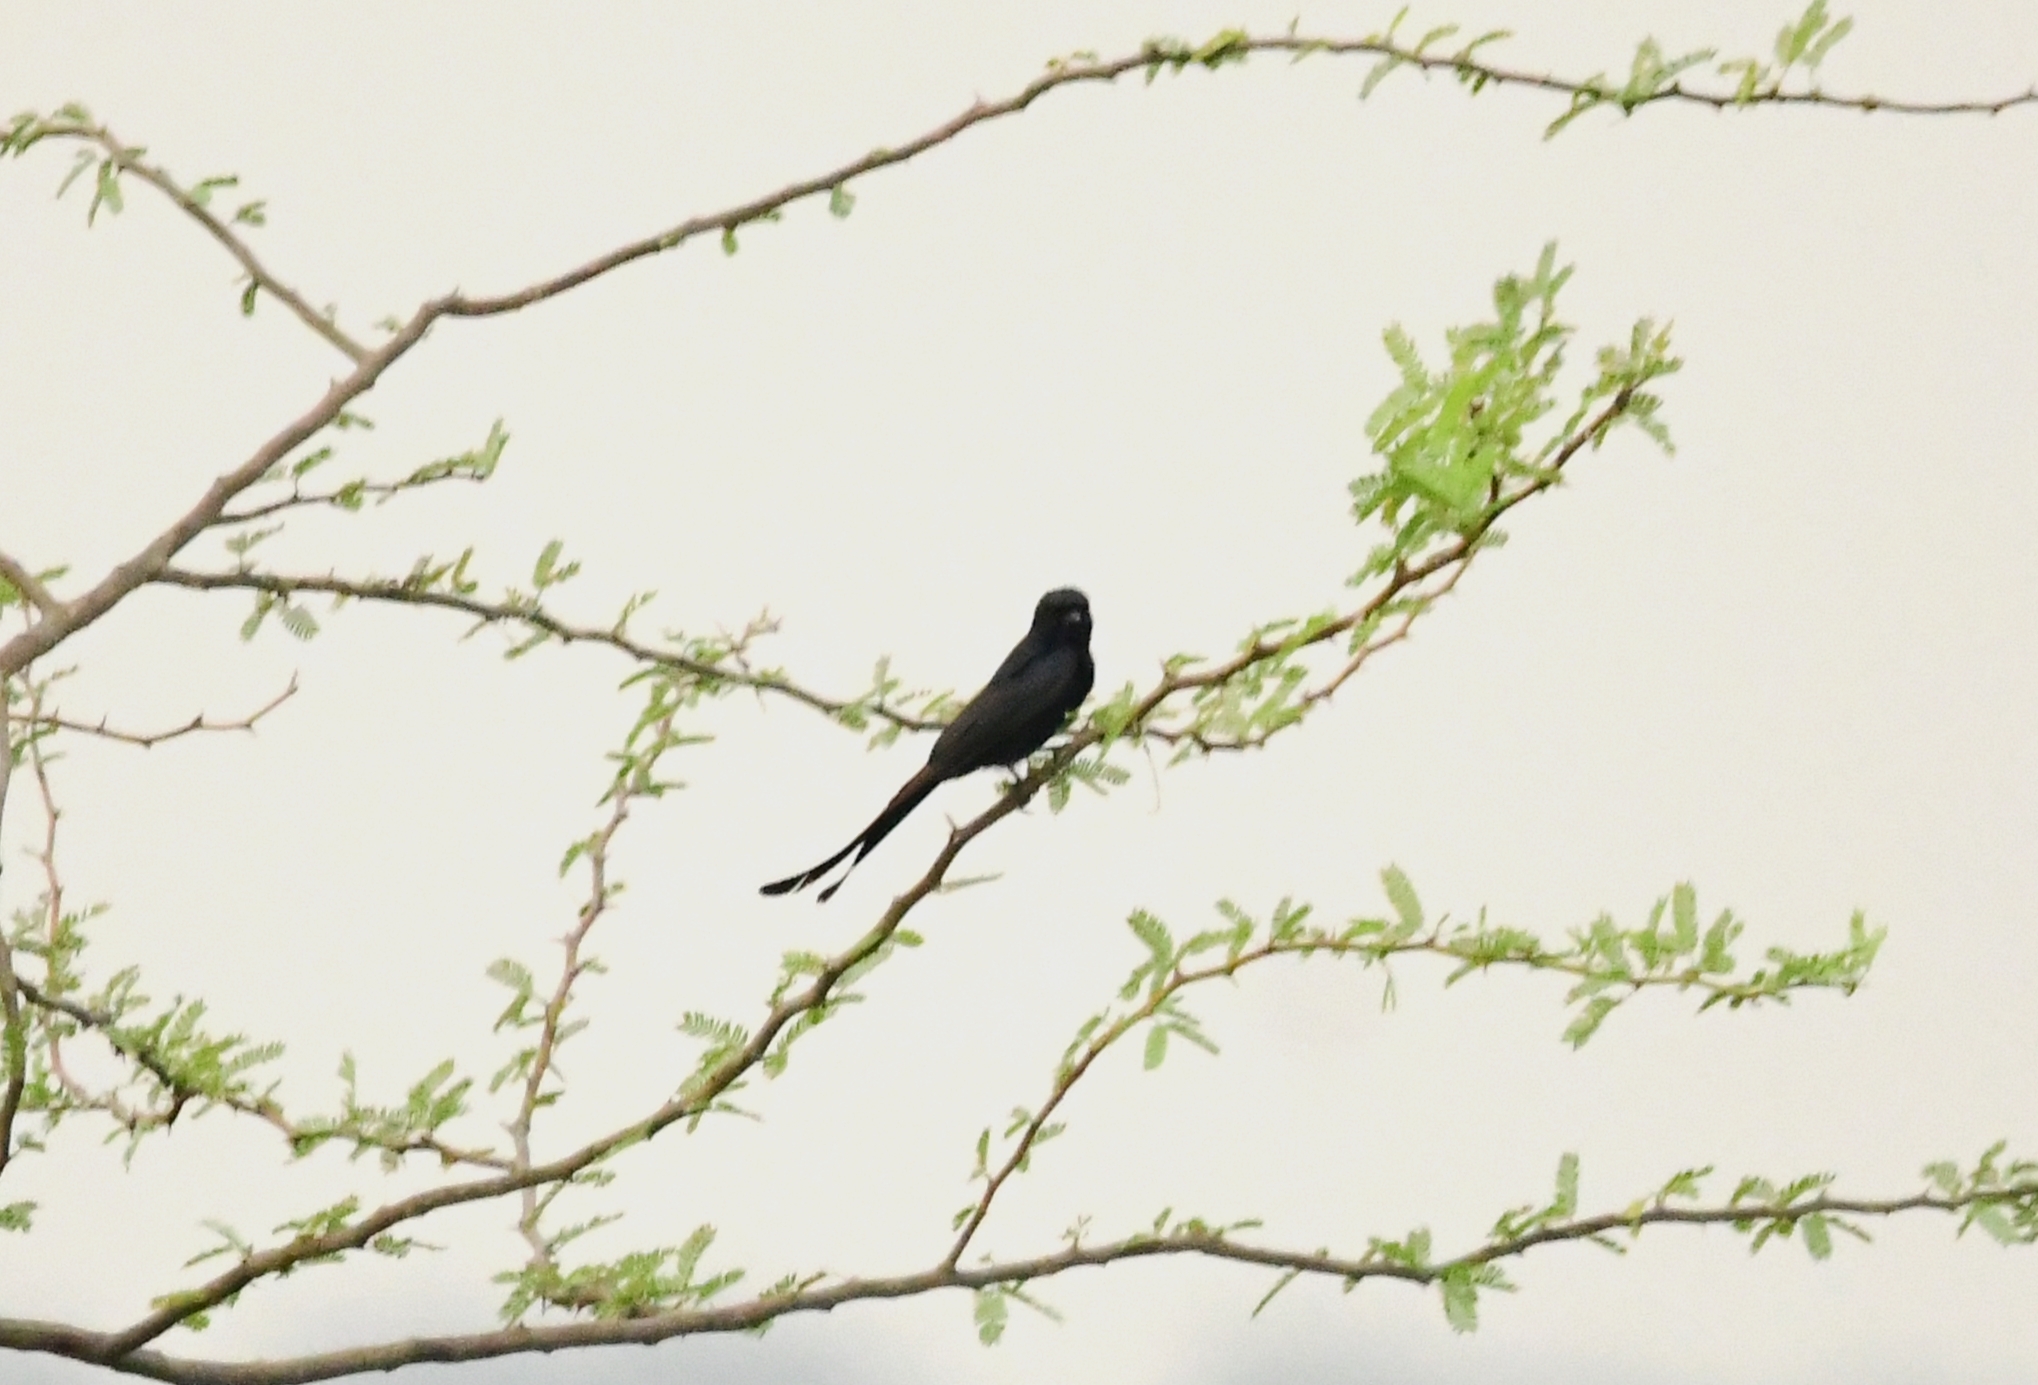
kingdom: Animalia
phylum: Chordata
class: Aves
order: Passeriformes
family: Dicruridae
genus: Dicrurus
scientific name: Dicrurus macrocercus
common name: Black drongo
